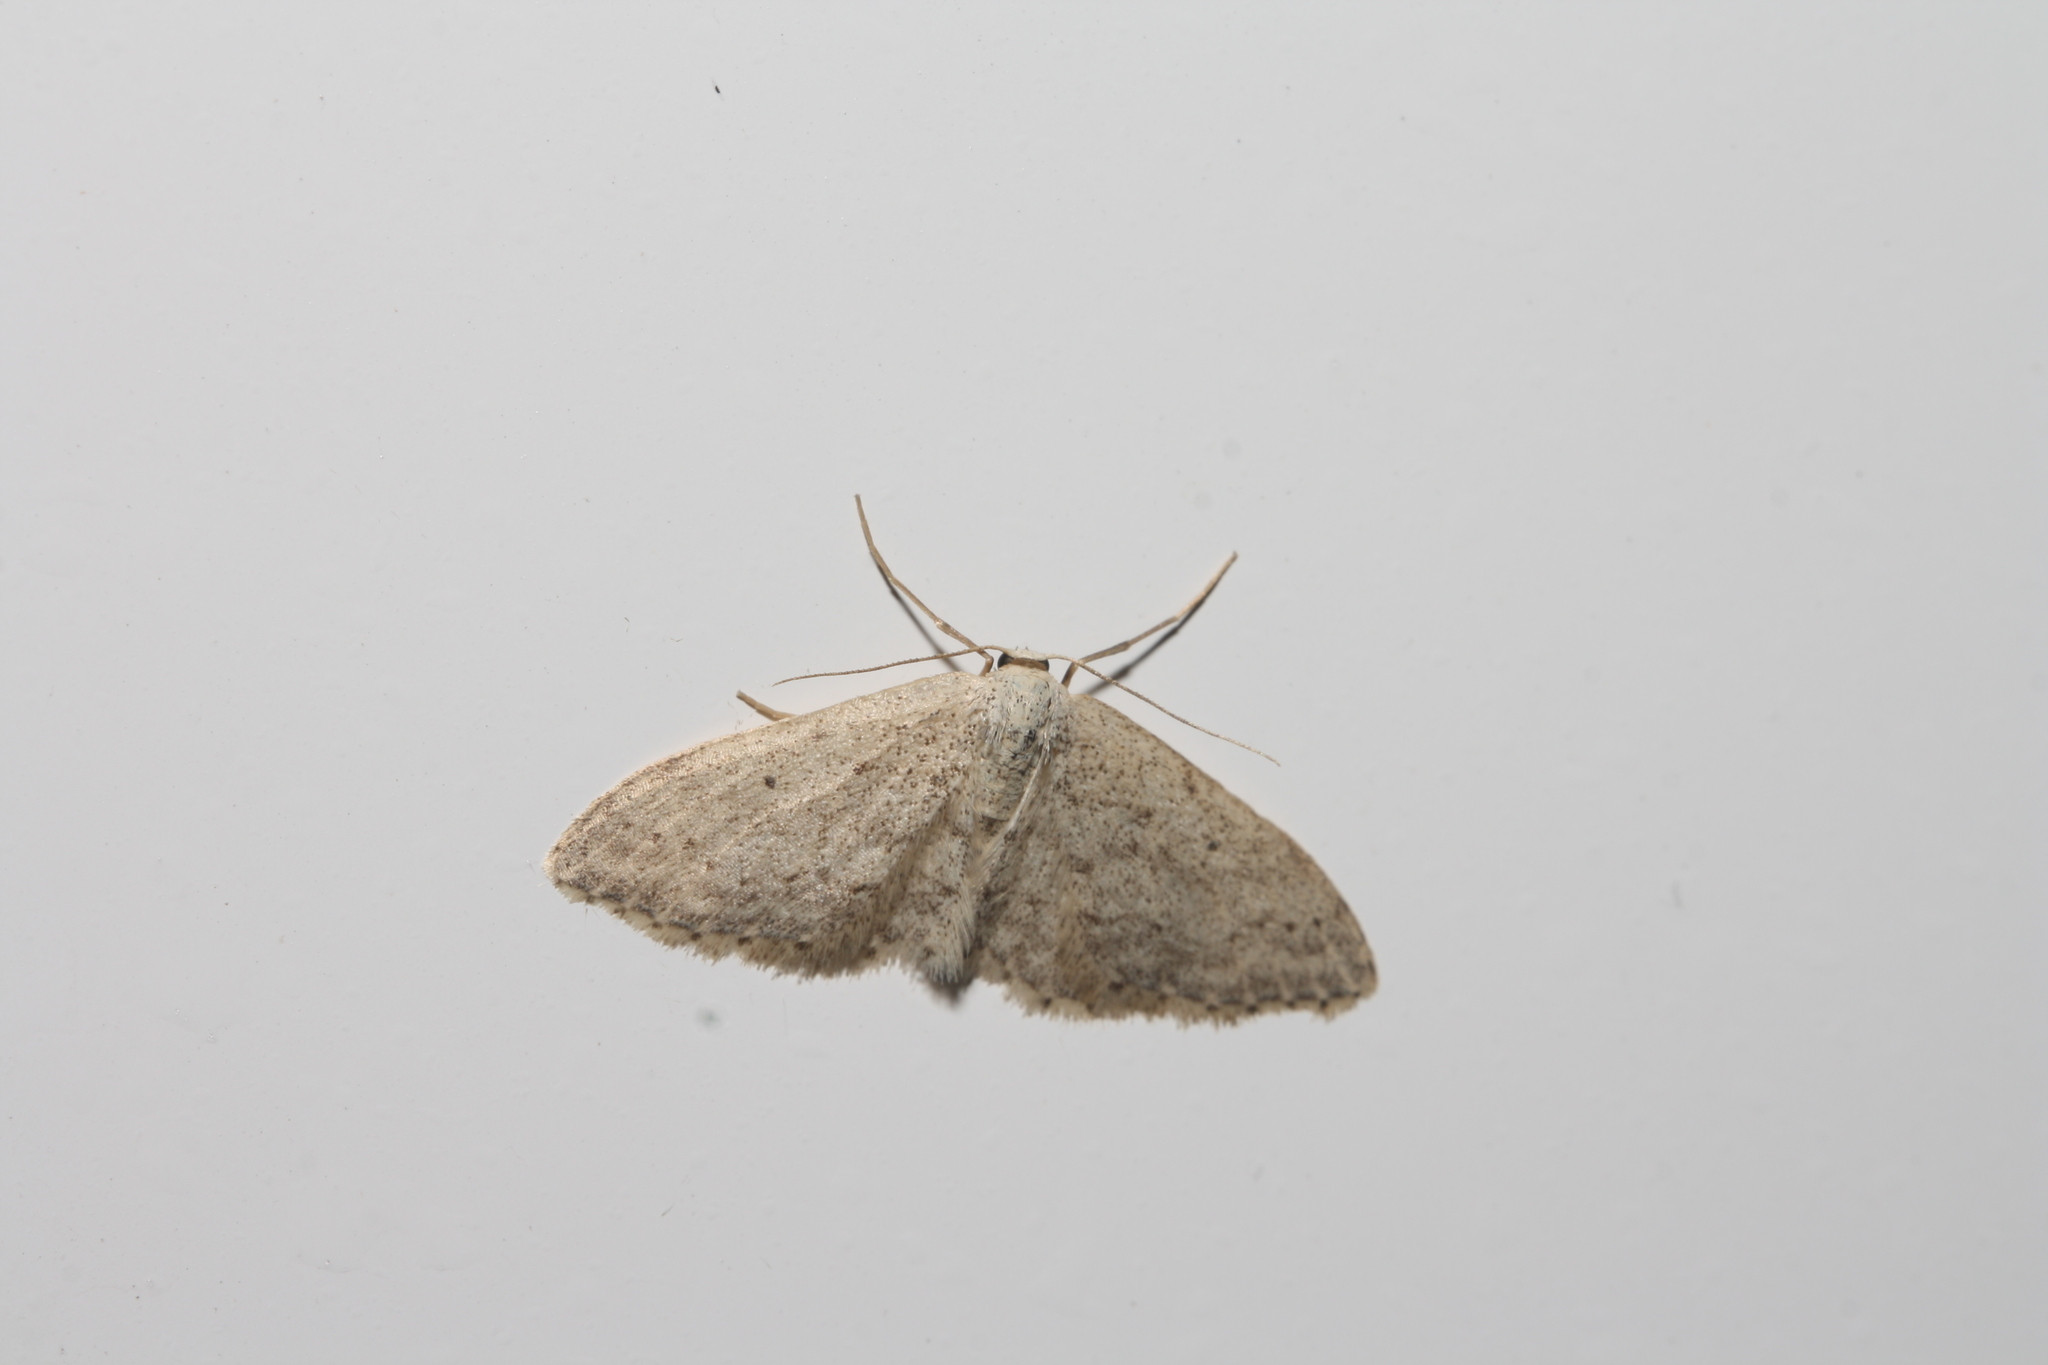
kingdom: Animalia
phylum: Arthropoda
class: Insecta
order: Lepidoptera
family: Geometridae
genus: Idaea
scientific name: Idaea seriata
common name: Small dusty wave
